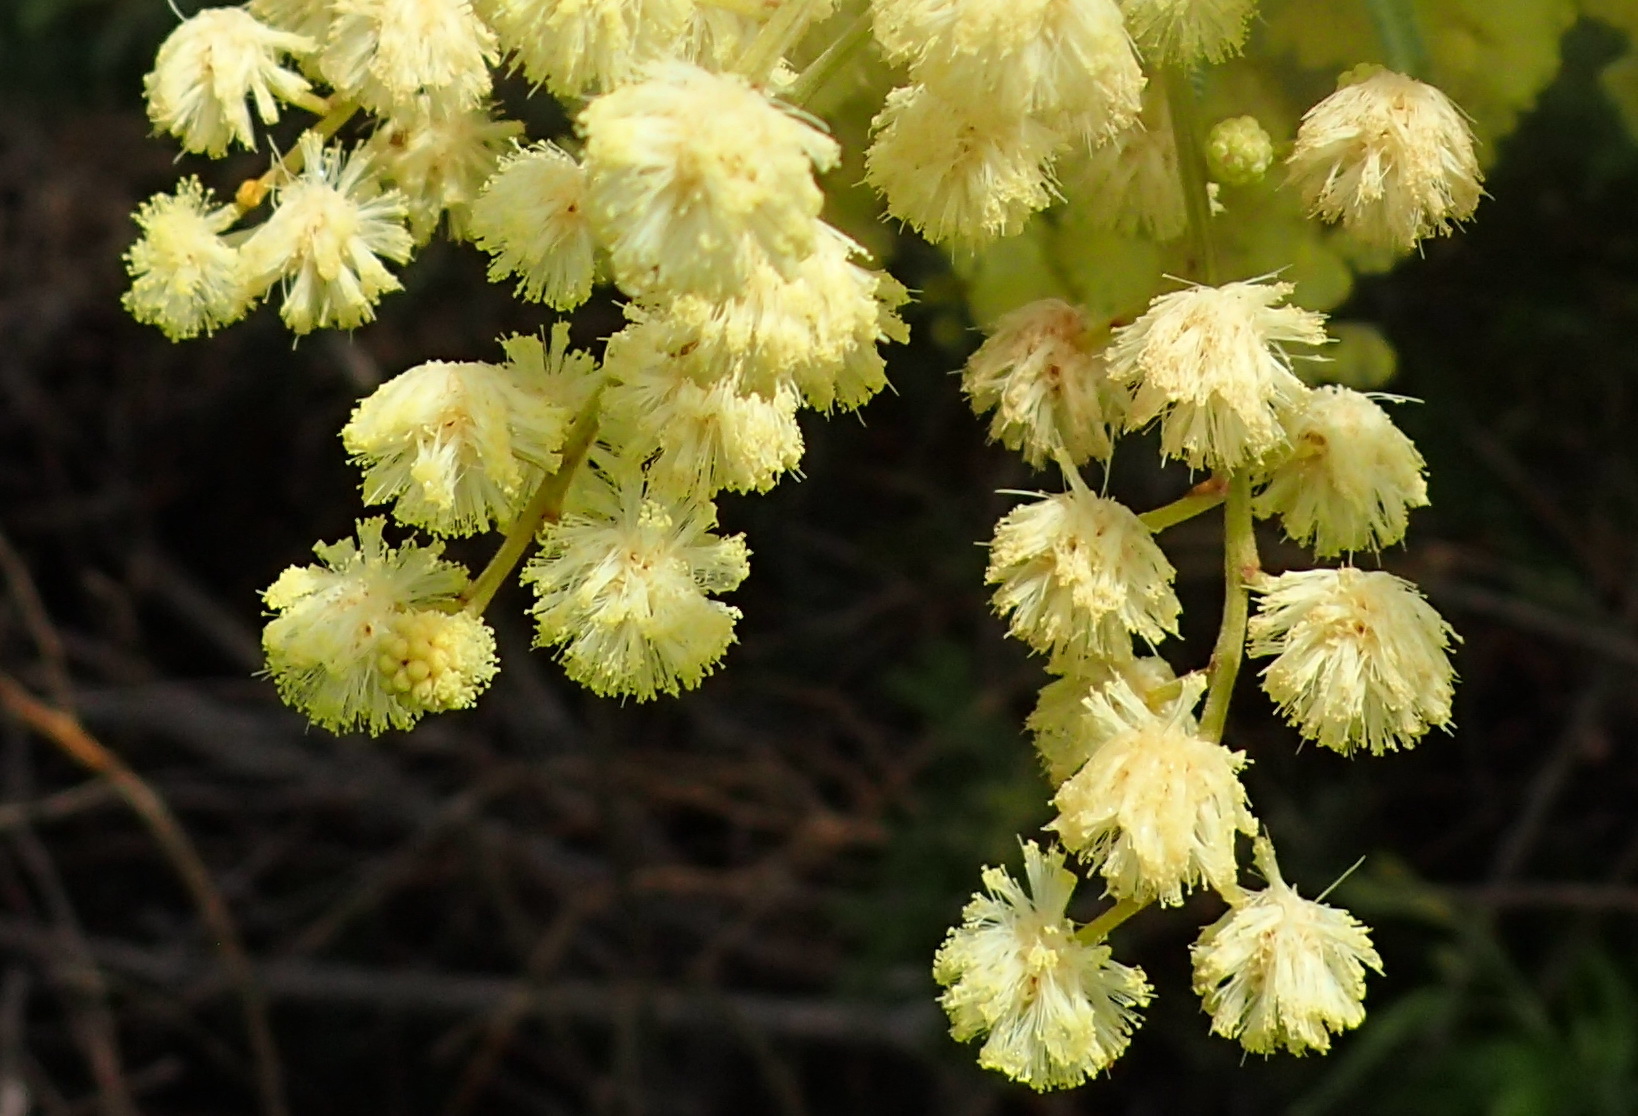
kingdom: Plantae
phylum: Tracheophyta
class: Magnoliopsida
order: Fabales
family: Fabaceae
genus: Acacia
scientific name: Acacia mearnsii
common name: Black wattle
